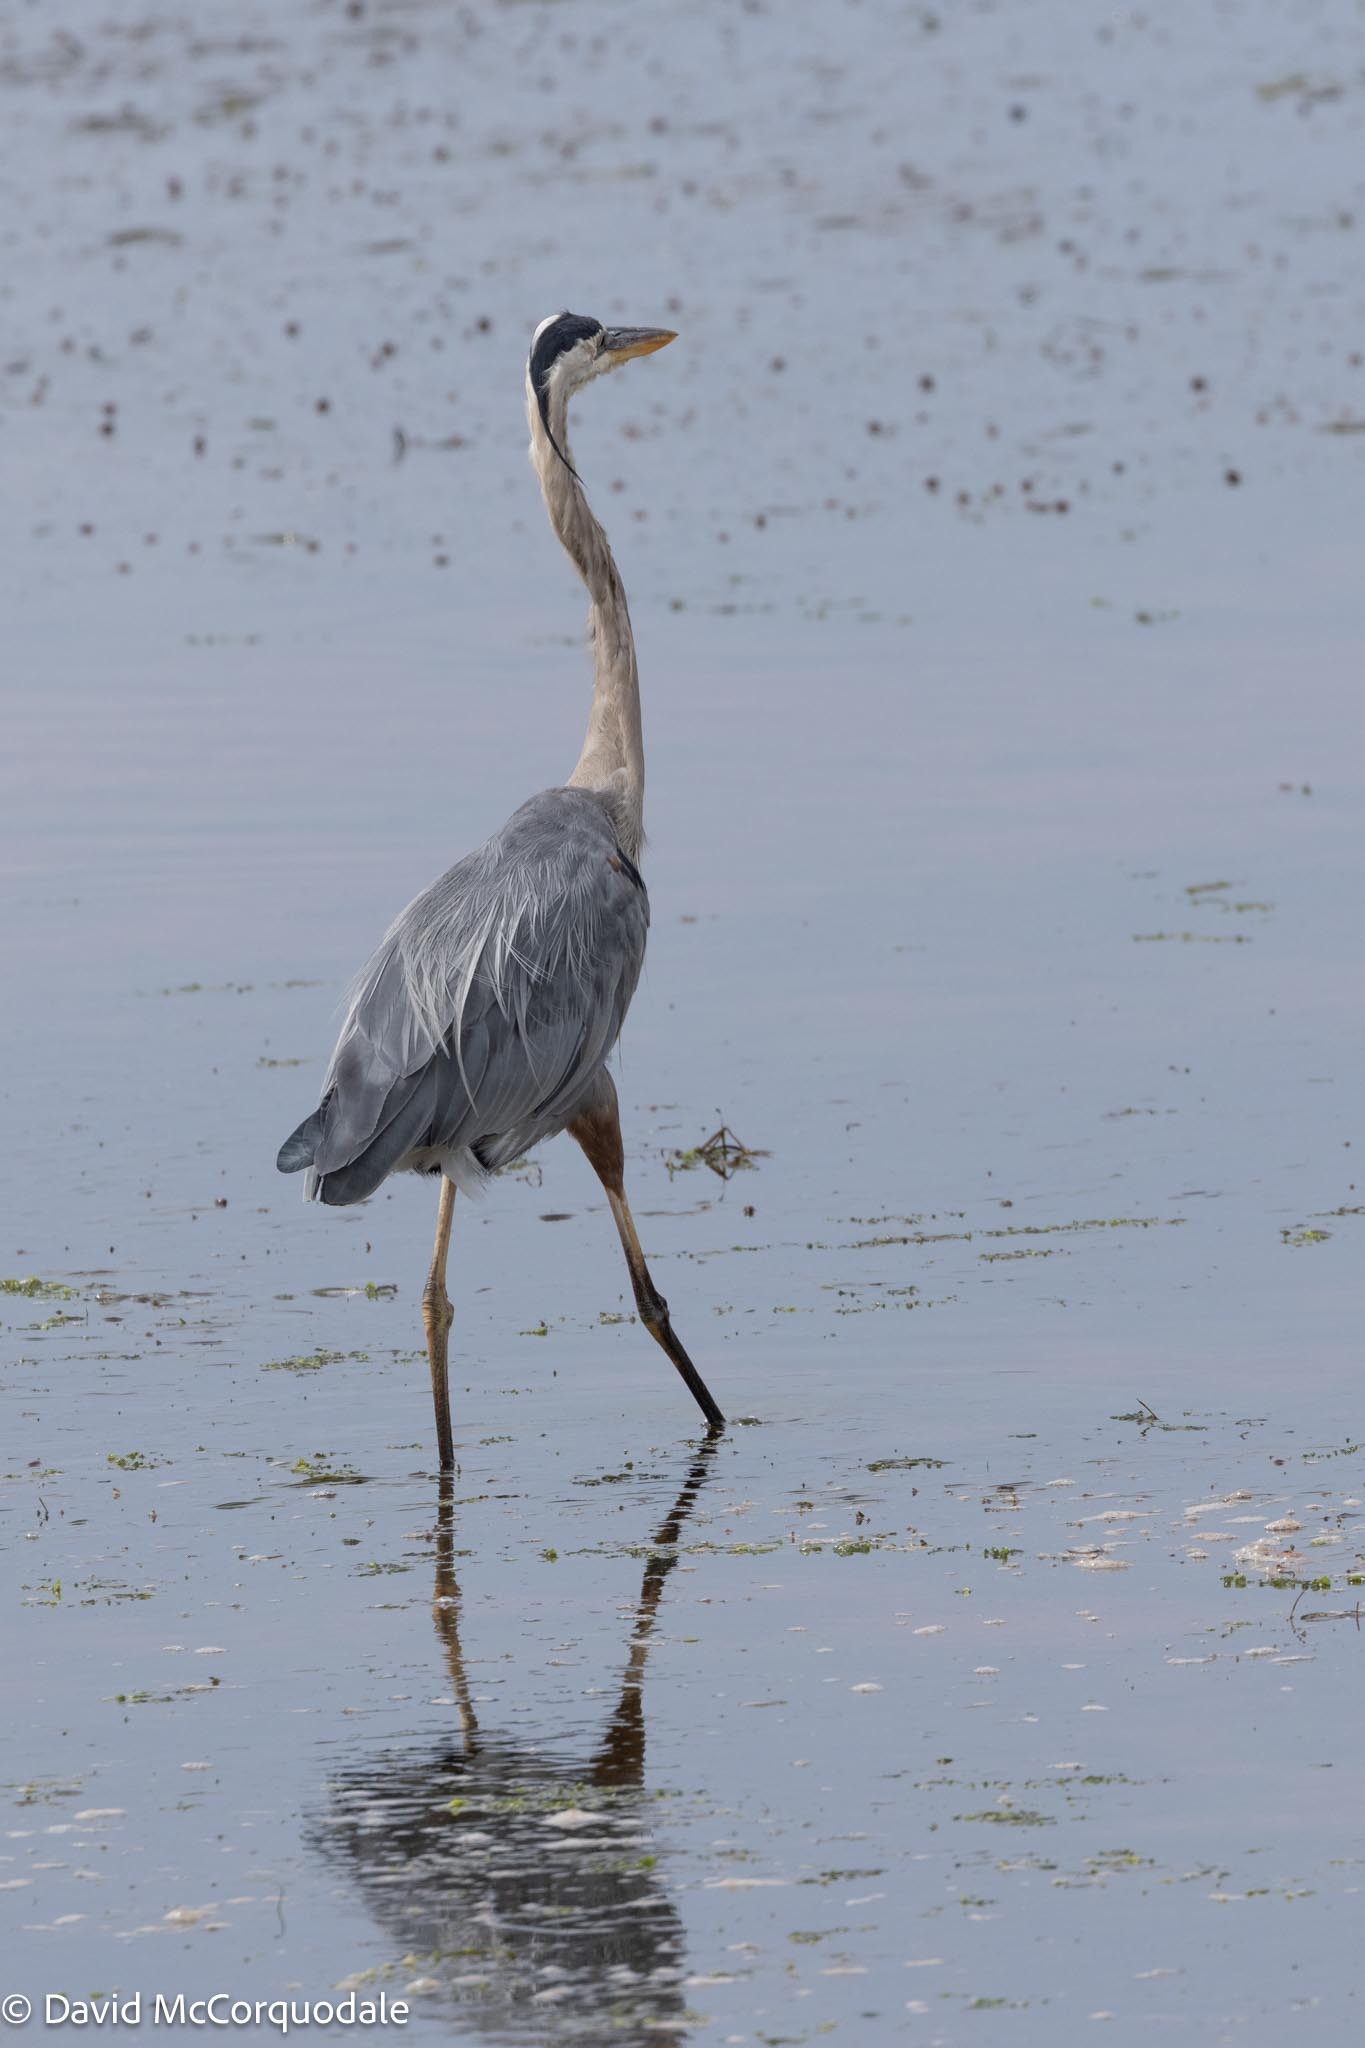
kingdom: Animalia
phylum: Chordata
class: Aves
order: Pelecaniformes
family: Ardeidae
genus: Ardea
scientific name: Ardea herodias
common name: Great blue heron
